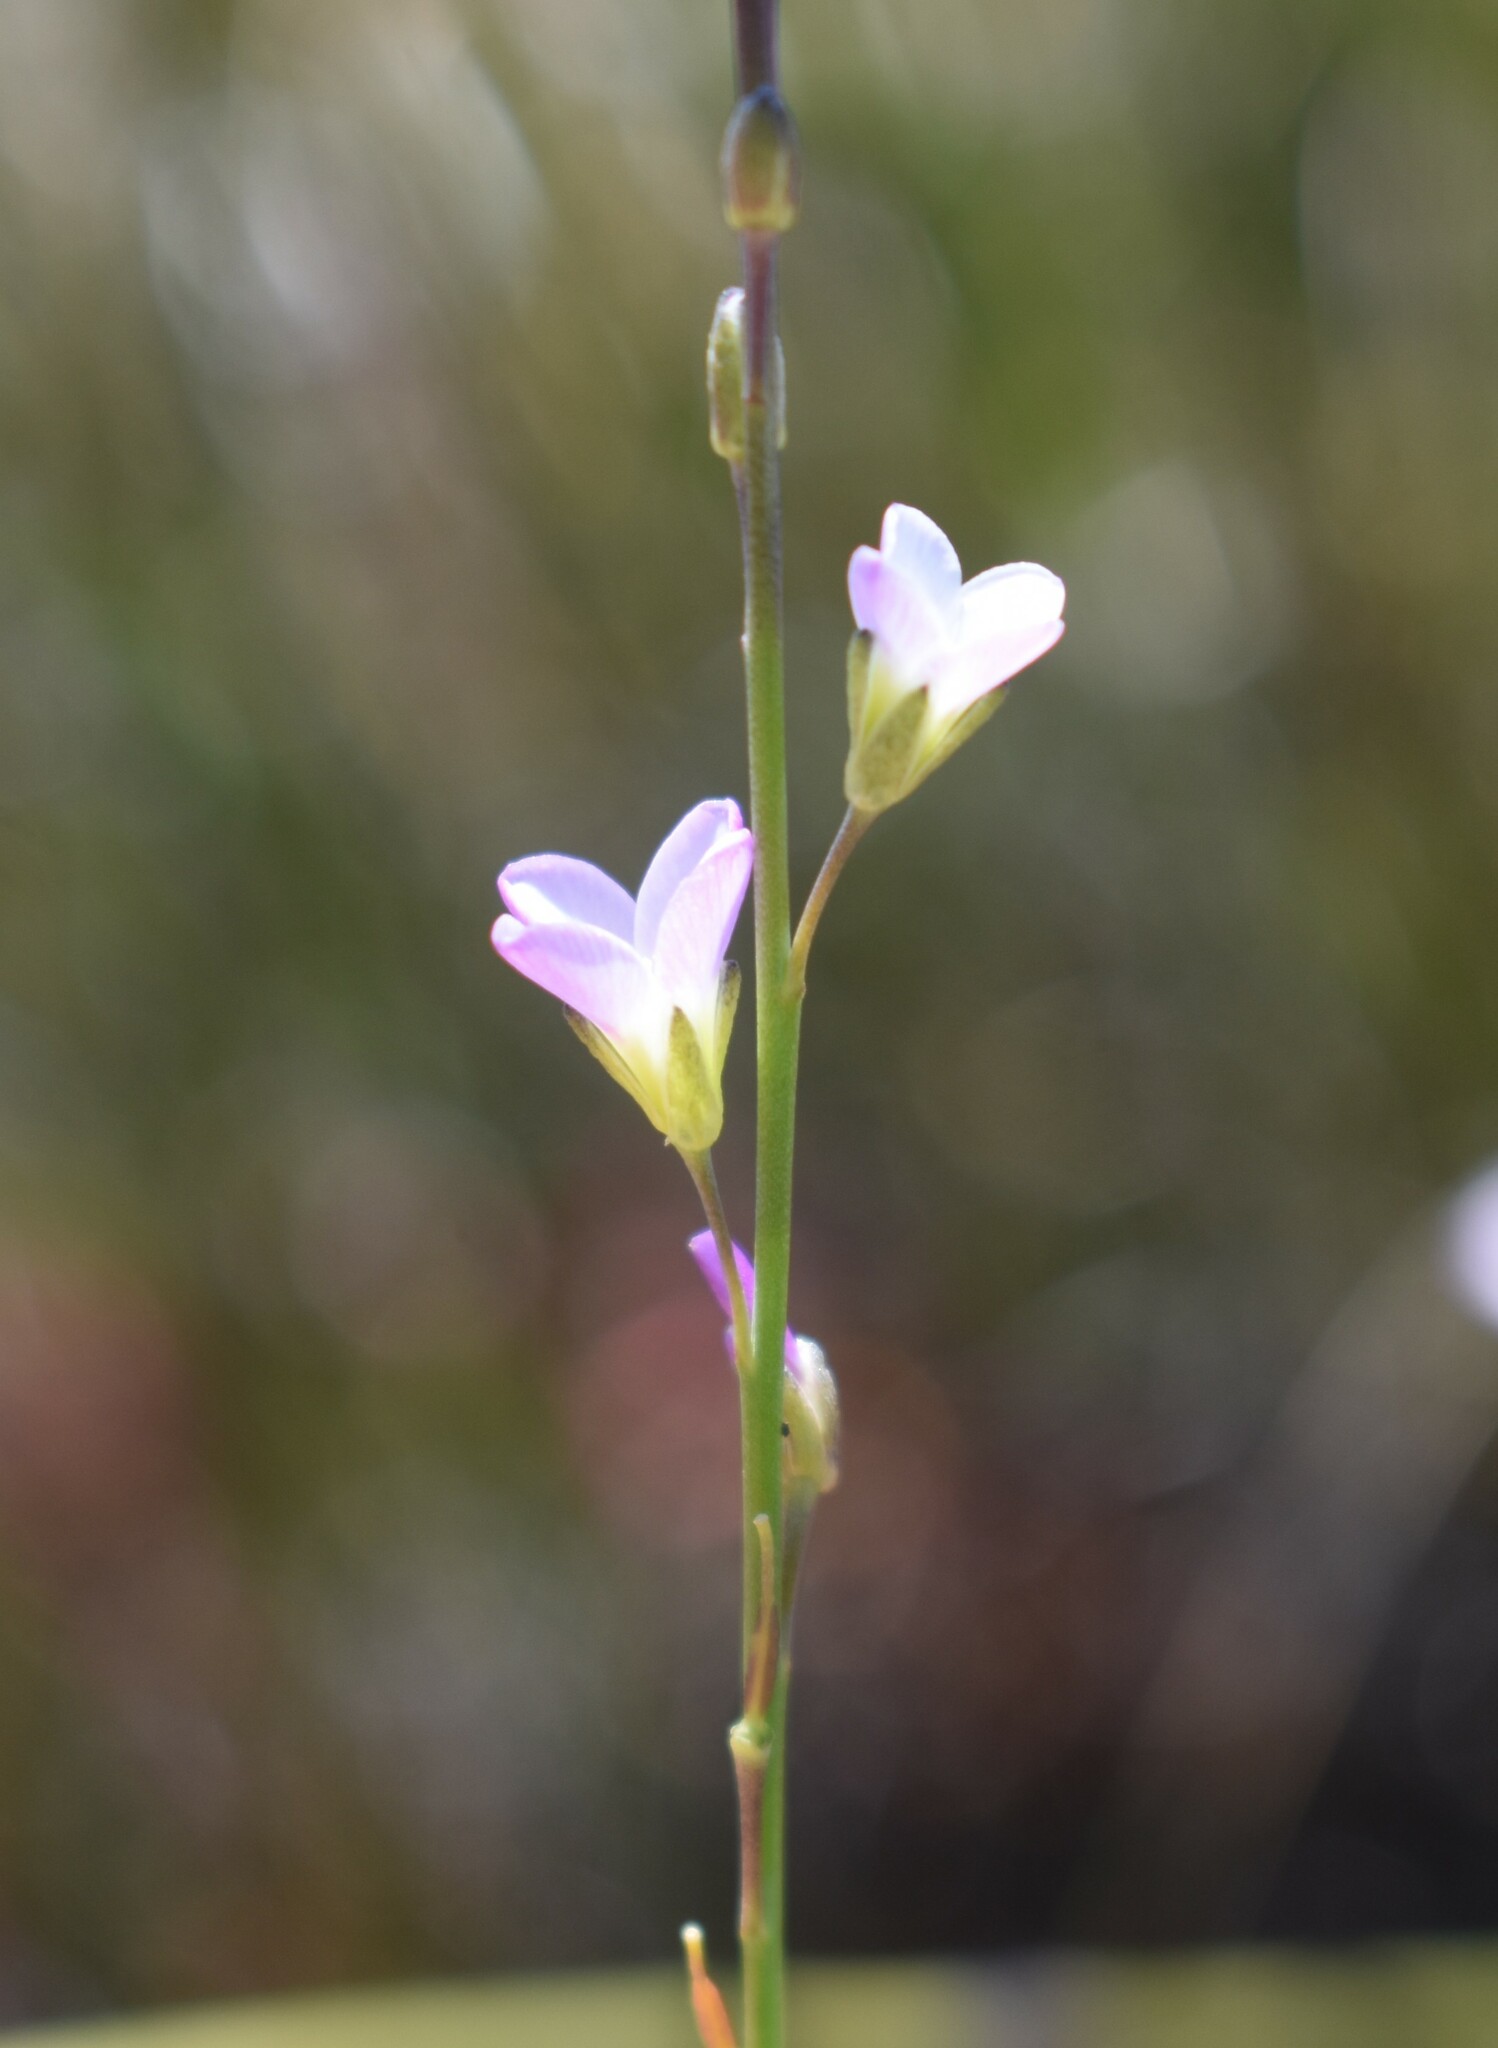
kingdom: Plantae
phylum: Tracheophyta
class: Magnoliopsida
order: Brassicales
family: Brassicaceae
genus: Heliophila
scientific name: Heliophila glauca
